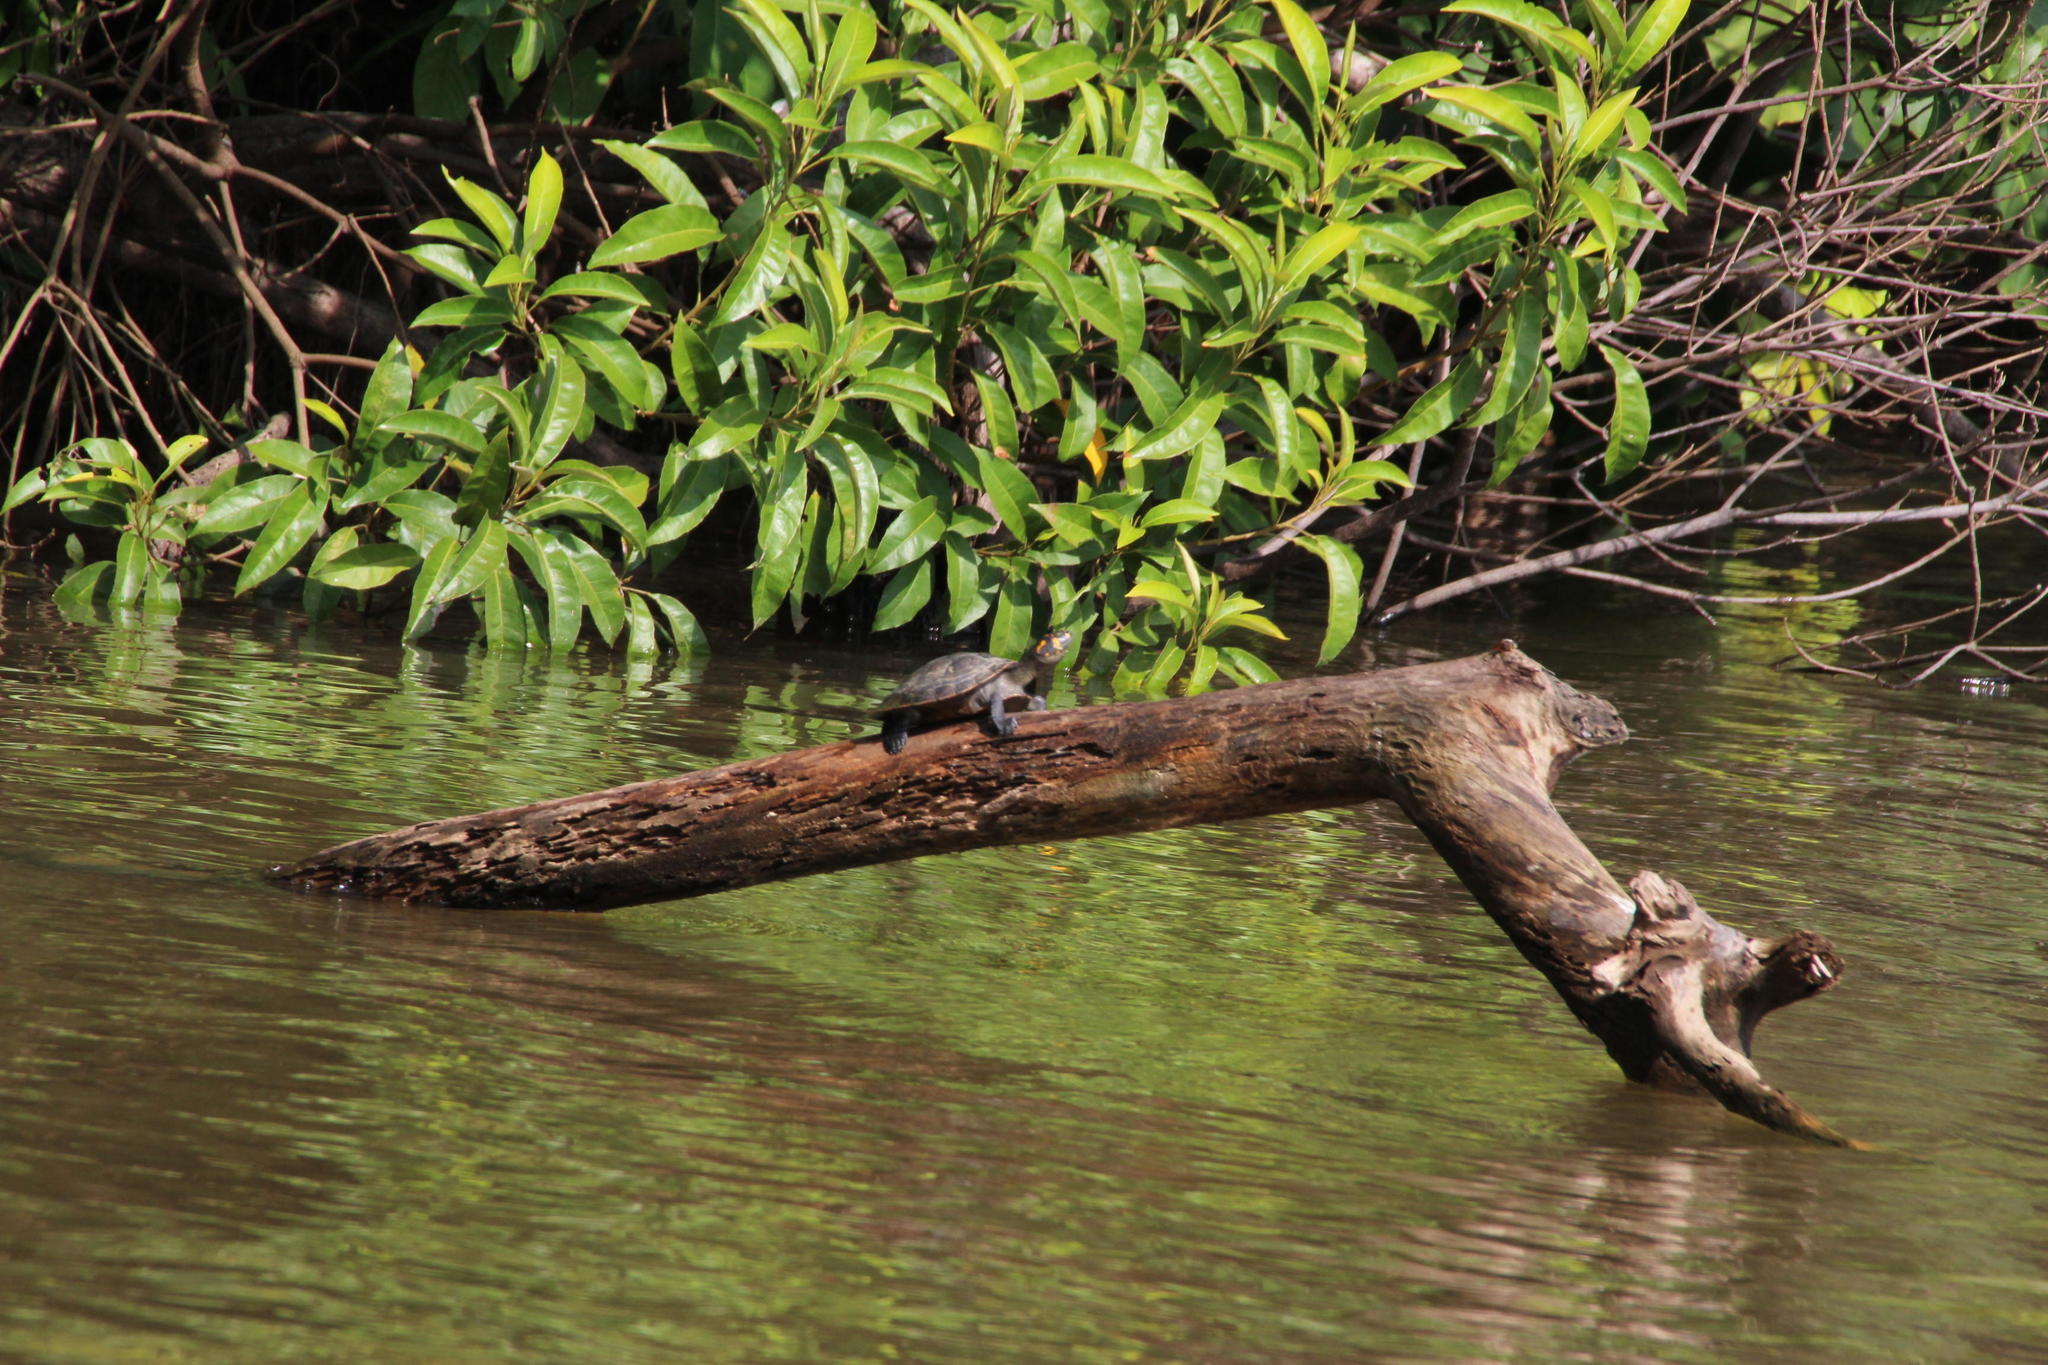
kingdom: Animalia
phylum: Chordata
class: Testudines
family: Podocnemididae
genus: Podocnemis
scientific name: Podocnemis unifilis
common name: Yellow-spotted amazon river turtle
